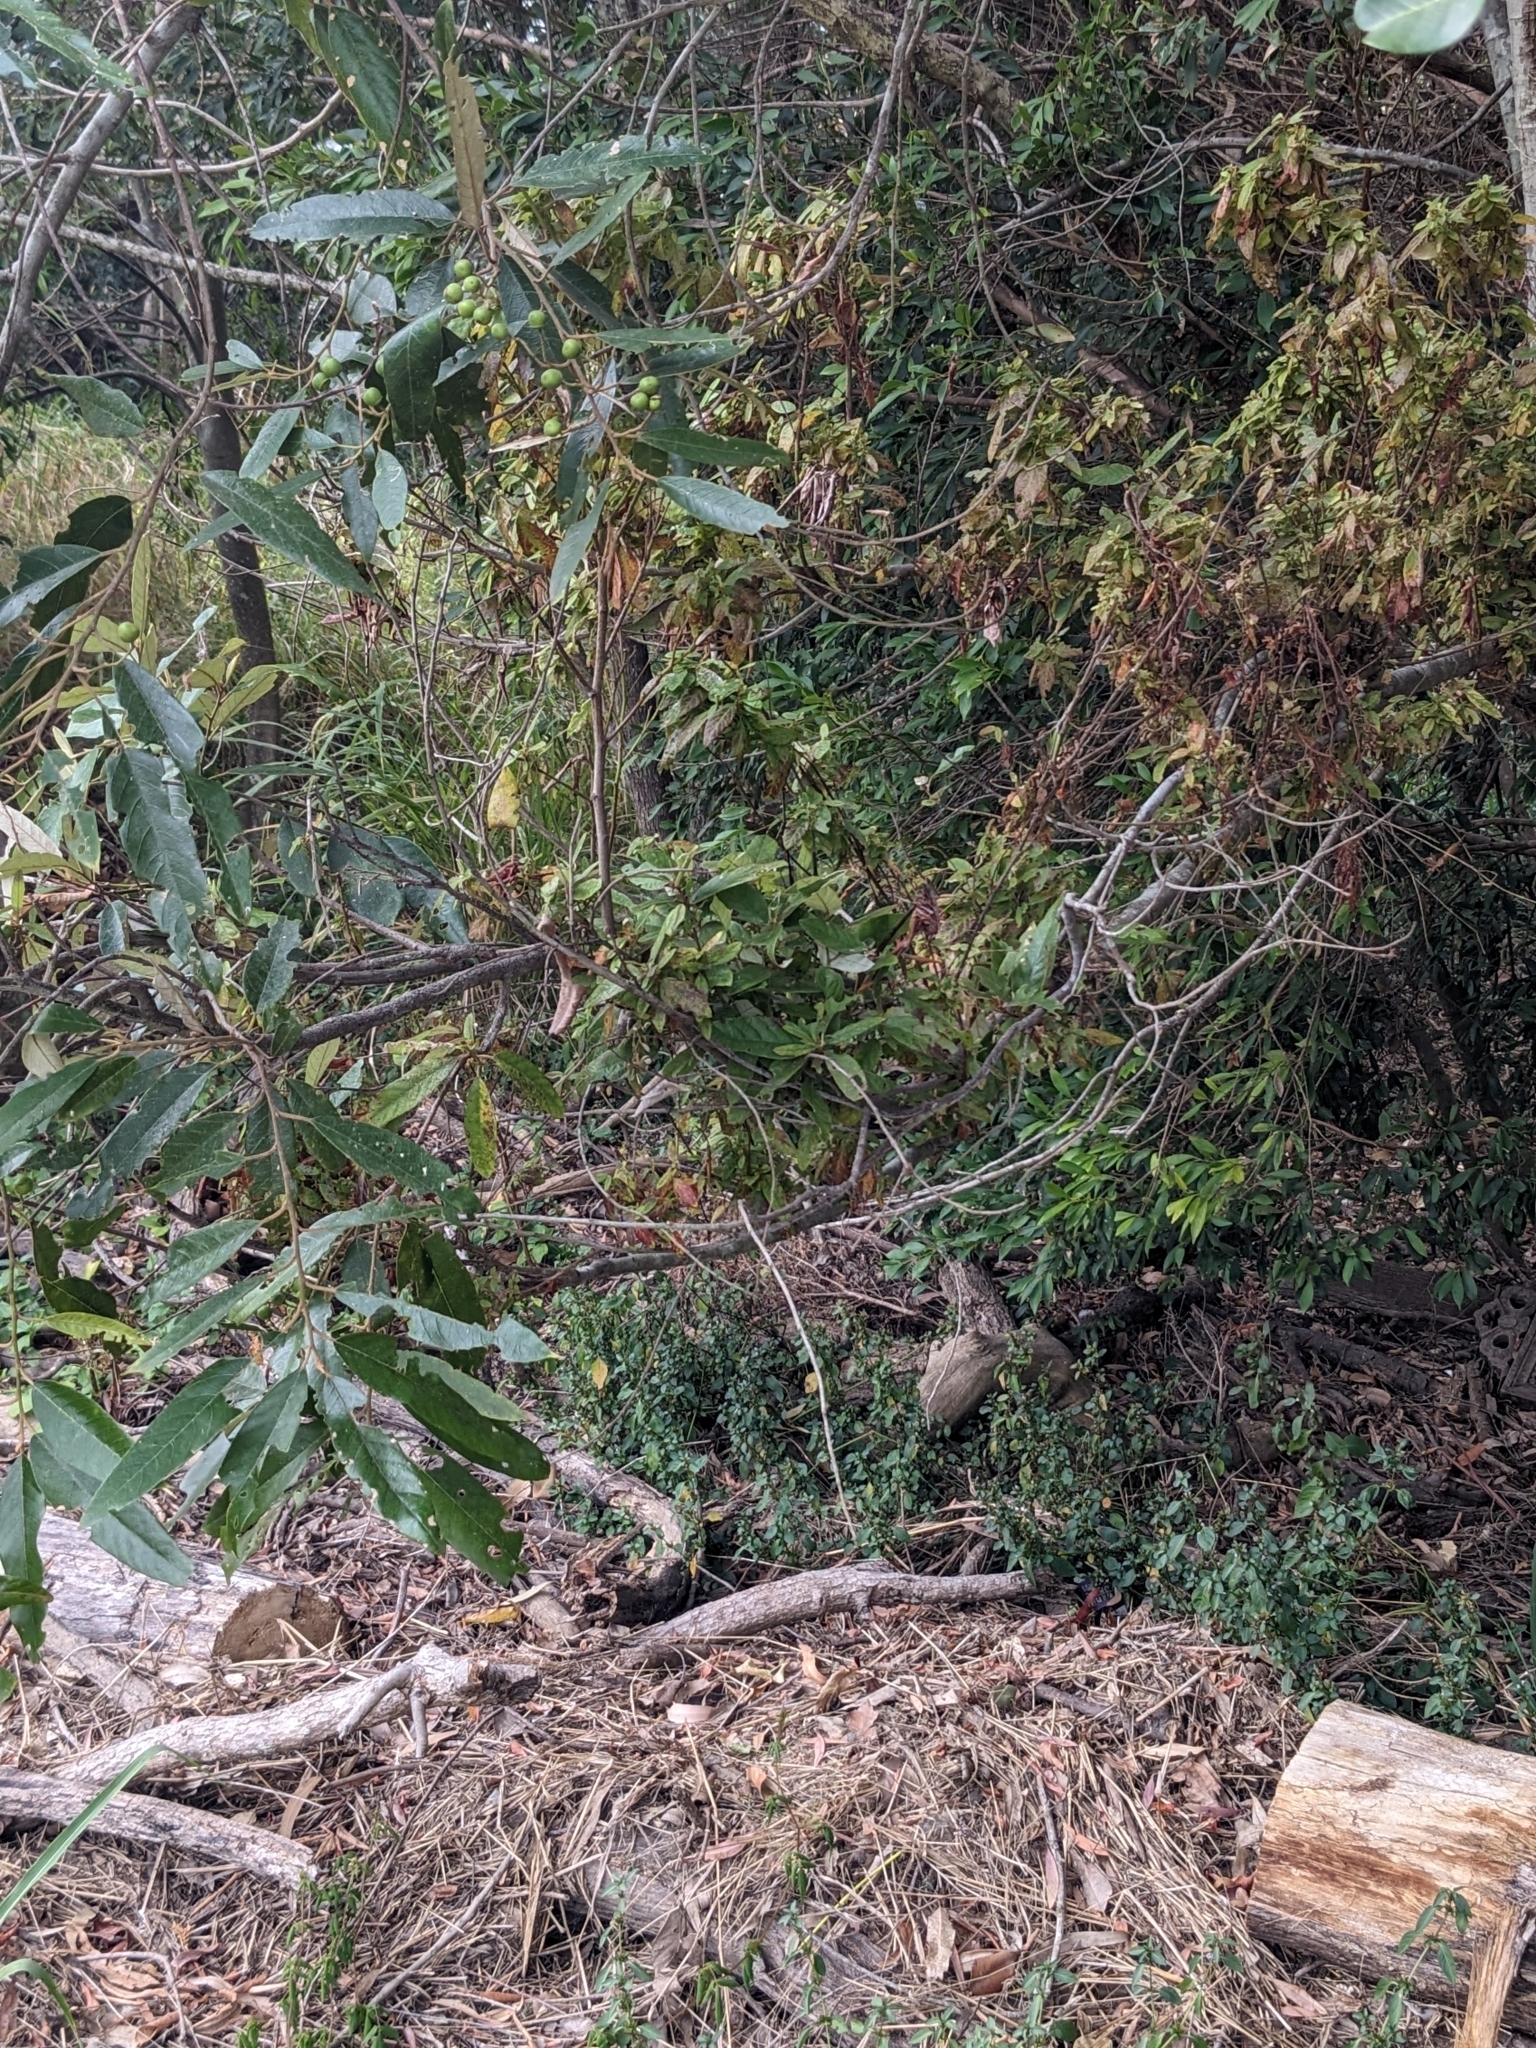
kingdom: Plantae
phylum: Tracheophyta
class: Magnoliopsida
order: Rosales
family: Rhamnaceae
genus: Alphitonia
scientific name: Alphitonia excelsa
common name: Red ash
